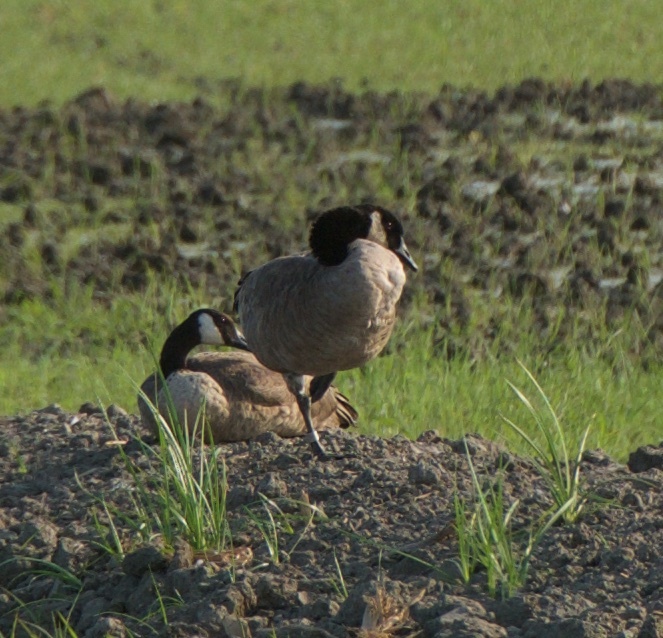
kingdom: Animalia
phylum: Chordata
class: Aves
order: Anseriformes
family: Anatidae
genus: Branta
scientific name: Branta canadensis
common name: Canada goose
